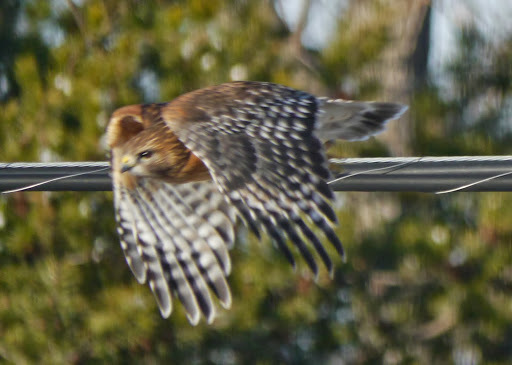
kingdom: Animalia
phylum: Chordata
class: Aves
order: Accipitriformes
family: Accipitridae
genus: Buteo
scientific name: Buteo lineatus
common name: Red-shouldered hawk
